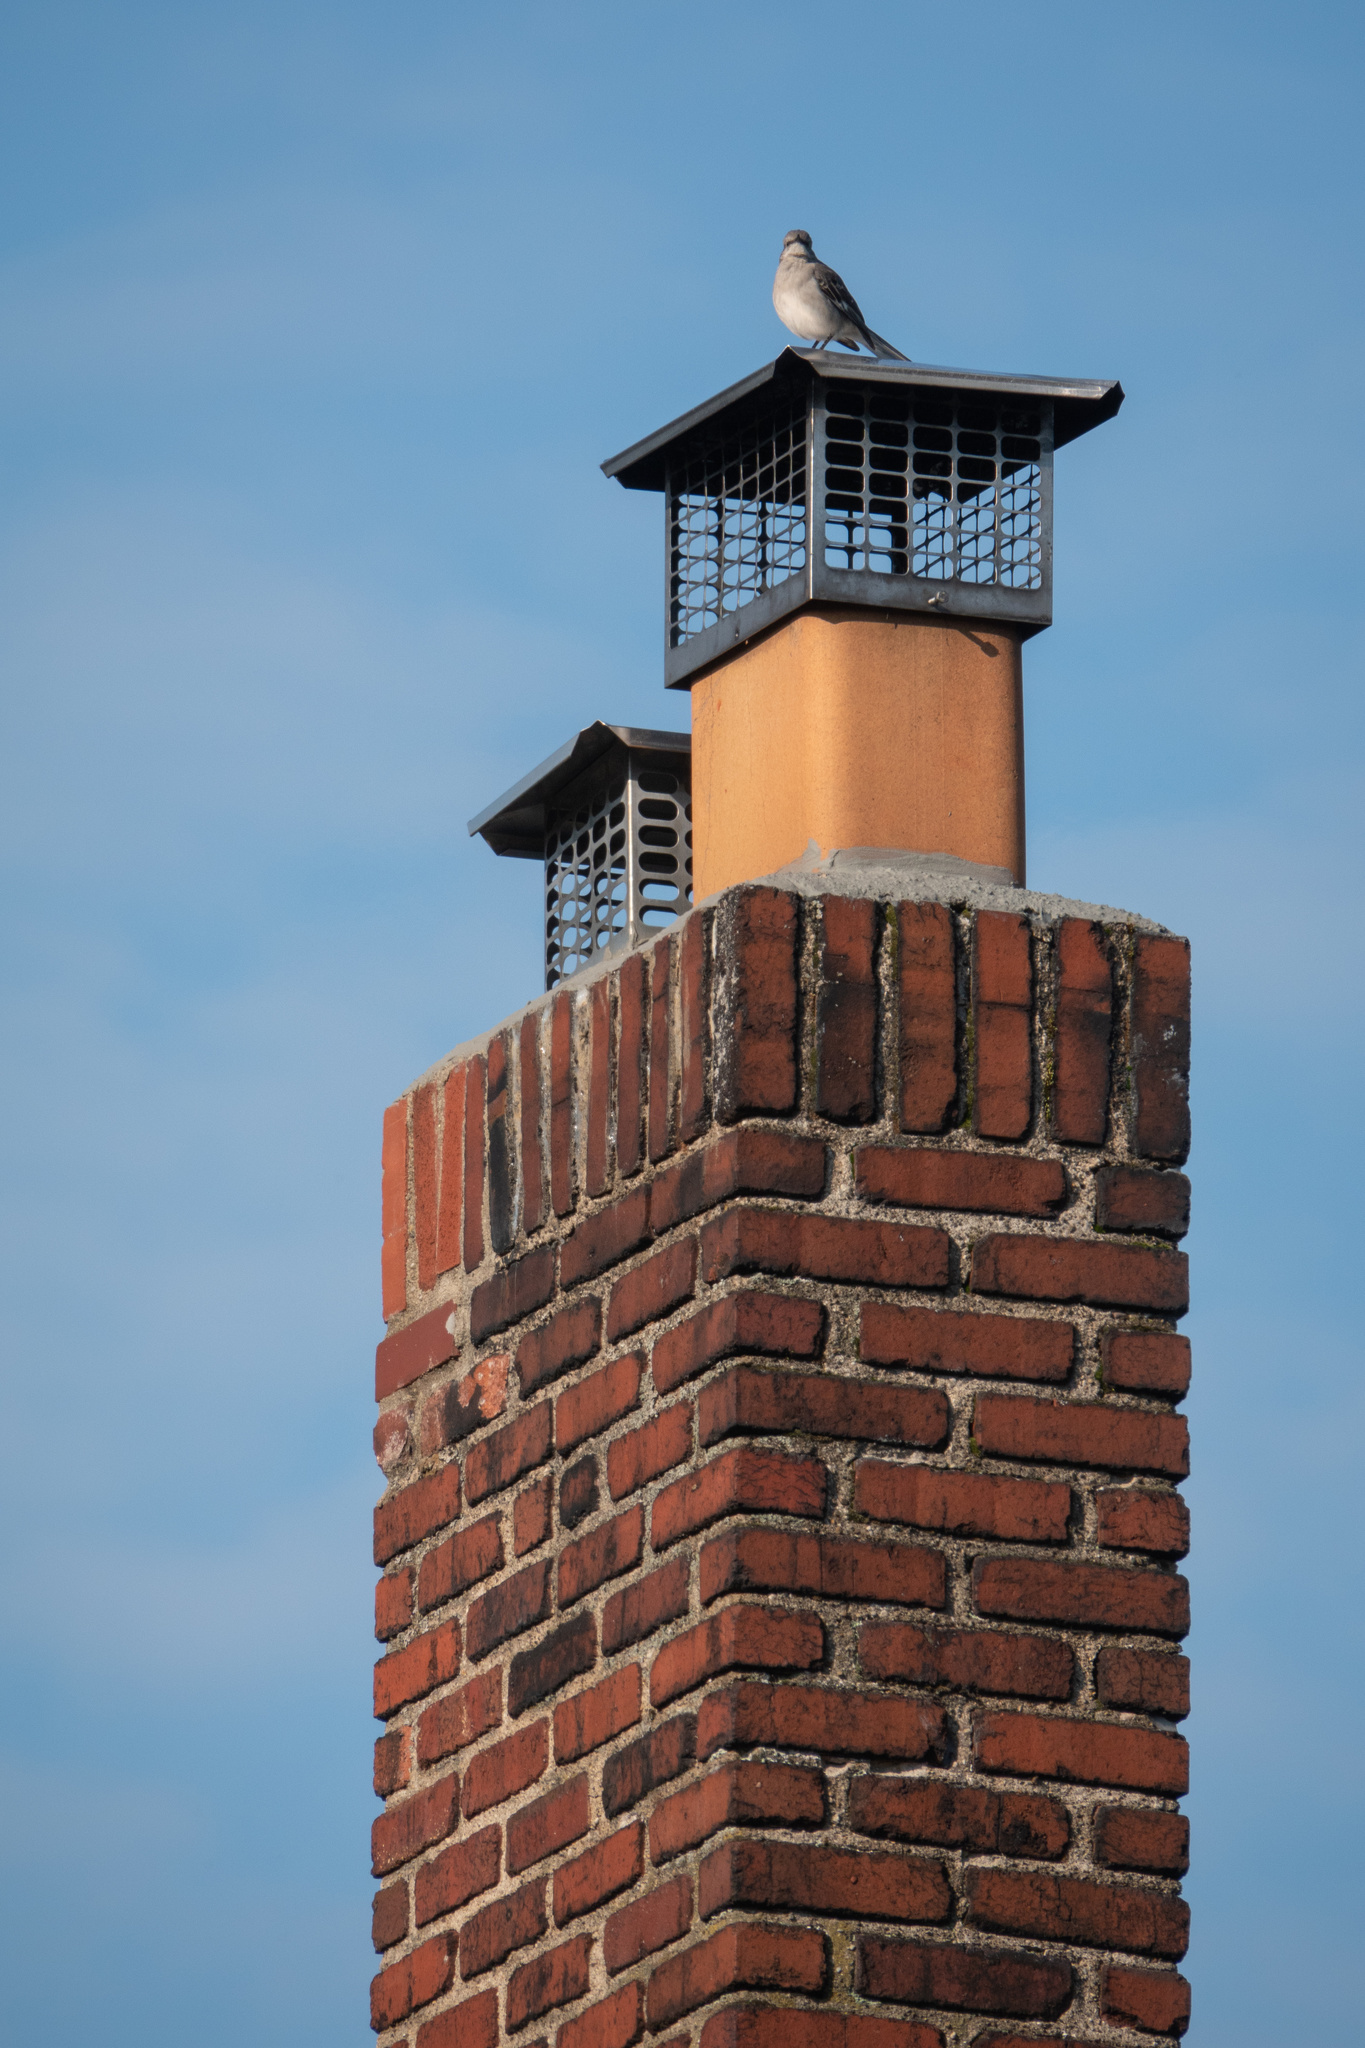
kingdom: Animalia
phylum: Chordata
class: Aves
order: Passeriformes
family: Mimidae
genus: Mimus
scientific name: Mimus polyglottos
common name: Northern mockingbird
